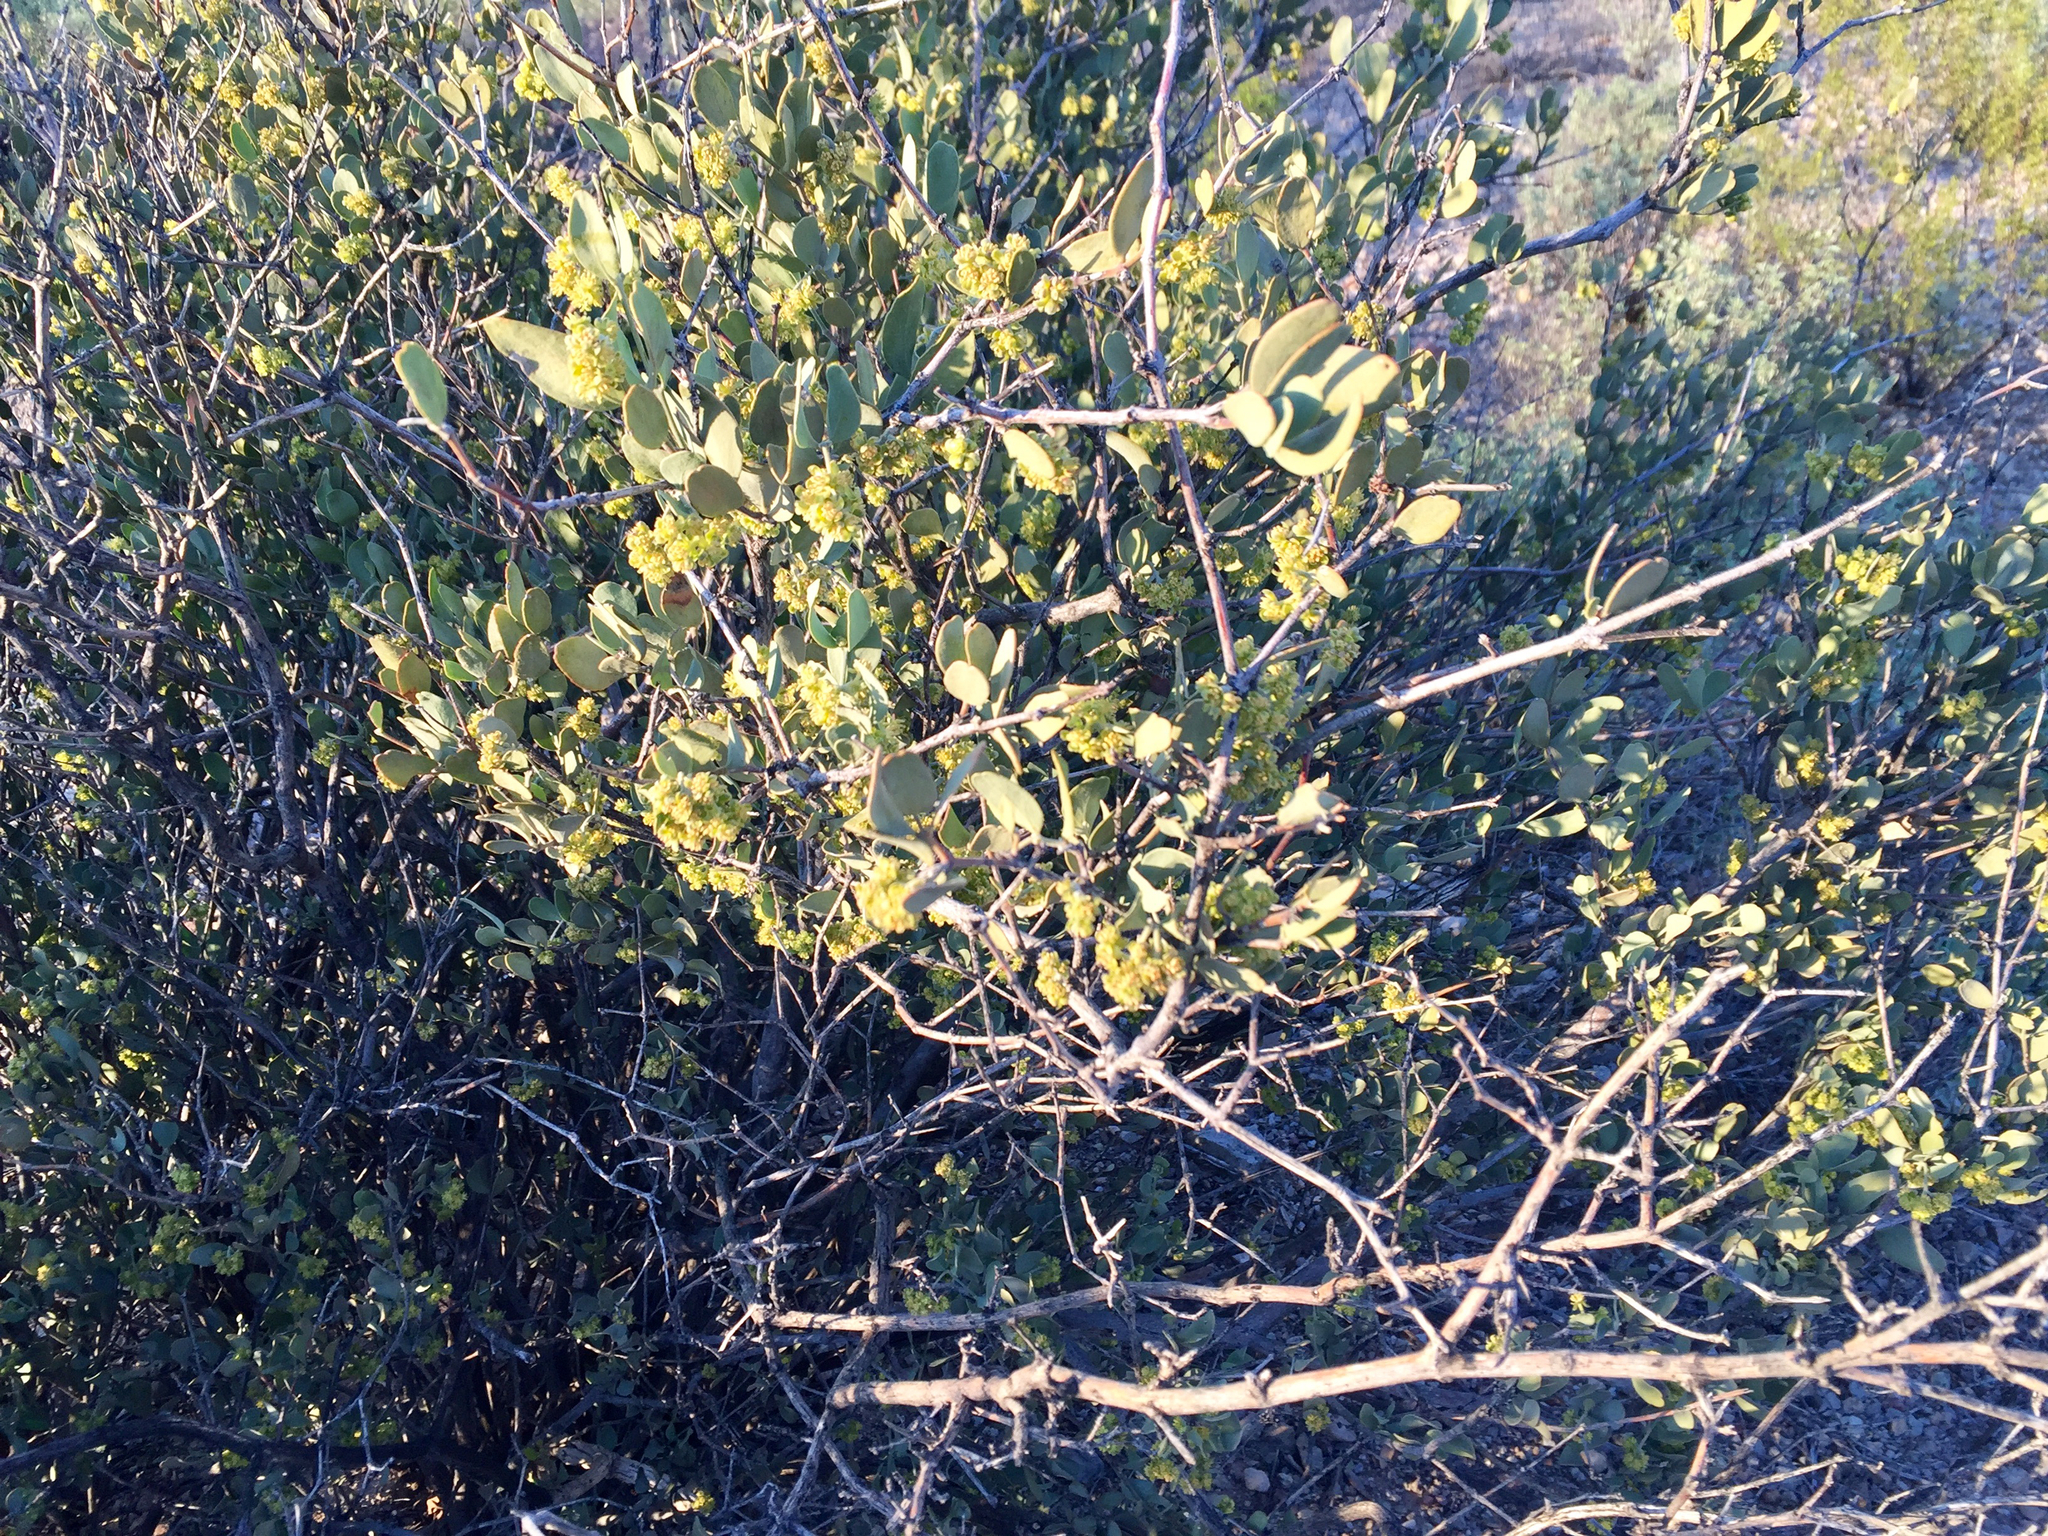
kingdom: Plantae
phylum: Tracheophyta
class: Magnoliopsida
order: Caryophyllales
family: Simmondsiaceae
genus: Simmondsia
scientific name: Simmondsia chinensis
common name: Jojoba
